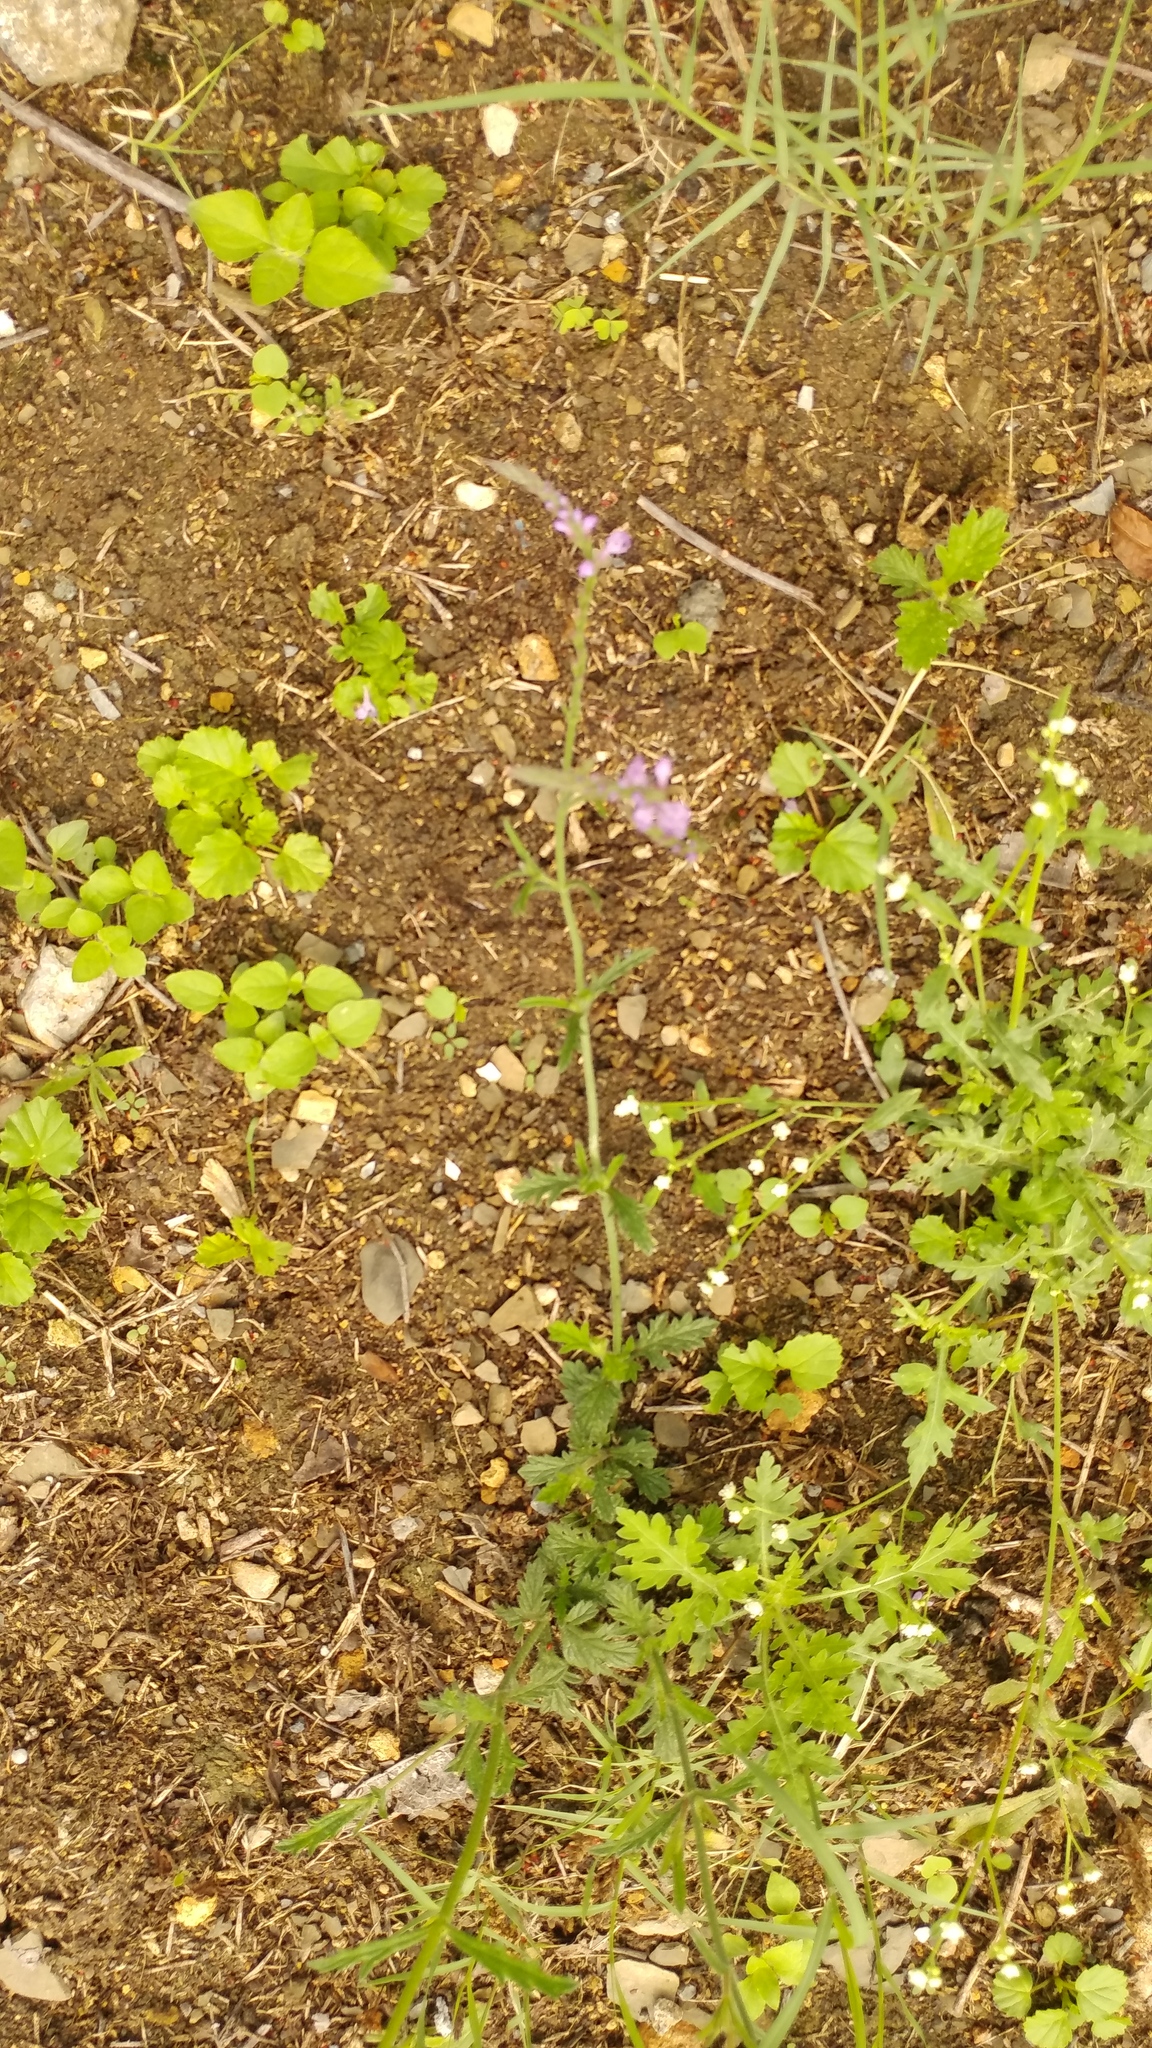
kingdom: Plantae
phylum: Tracheophyta
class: Magnoliopsida
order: Lamiales
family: Verbenaceae
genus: Verbena
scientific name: Verbena halei
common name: Texas vervain
